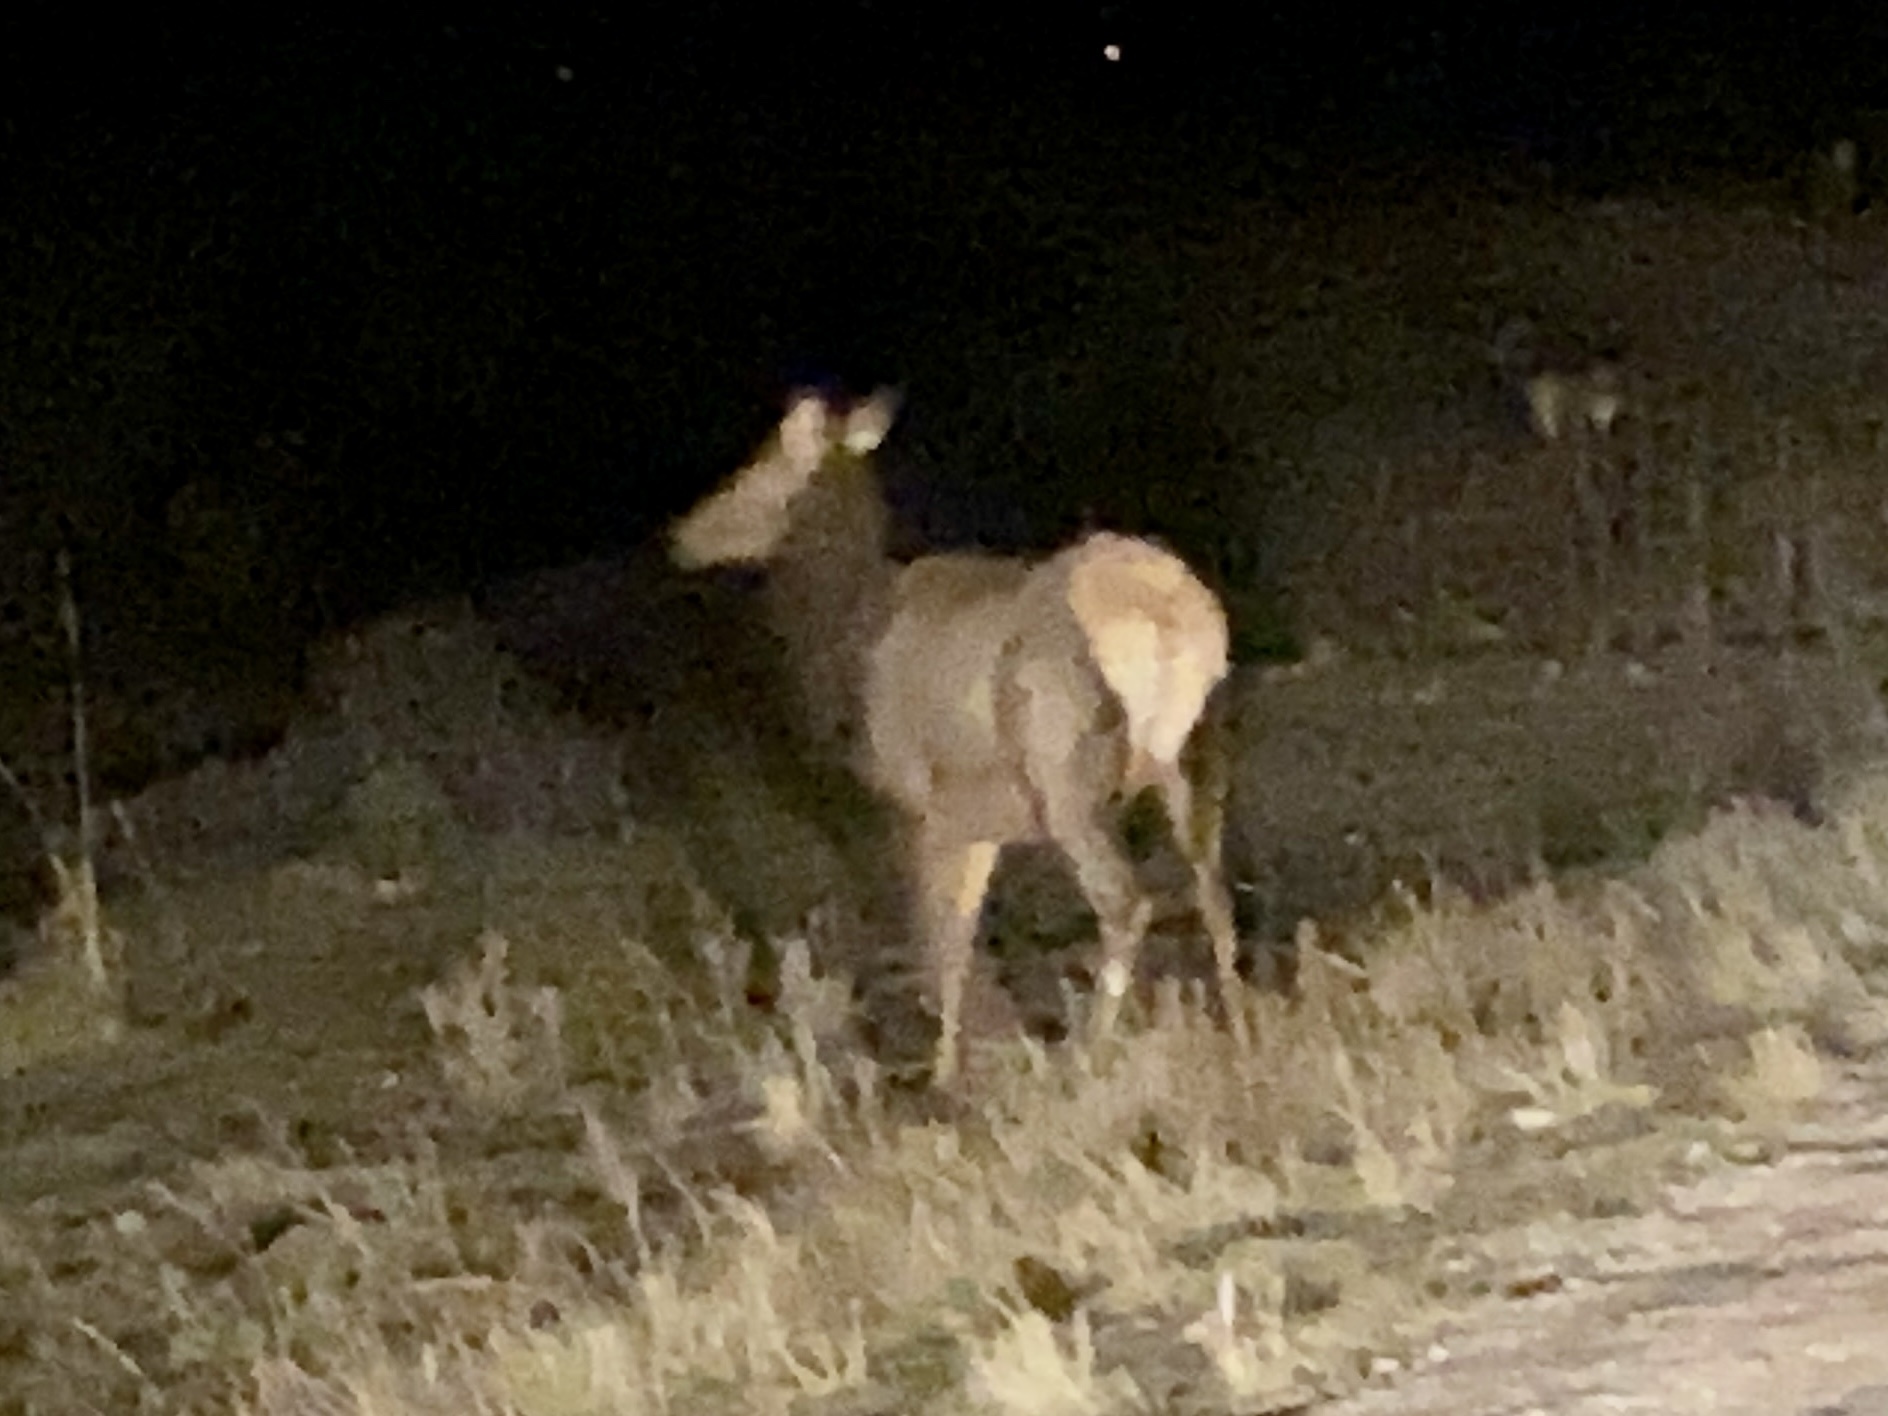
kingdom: Animalia
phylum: Chordata
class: Mammalia
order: Artiodactyla
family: Cervidae
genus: Cervus
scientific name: Cervus elaphus
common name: Red deer
